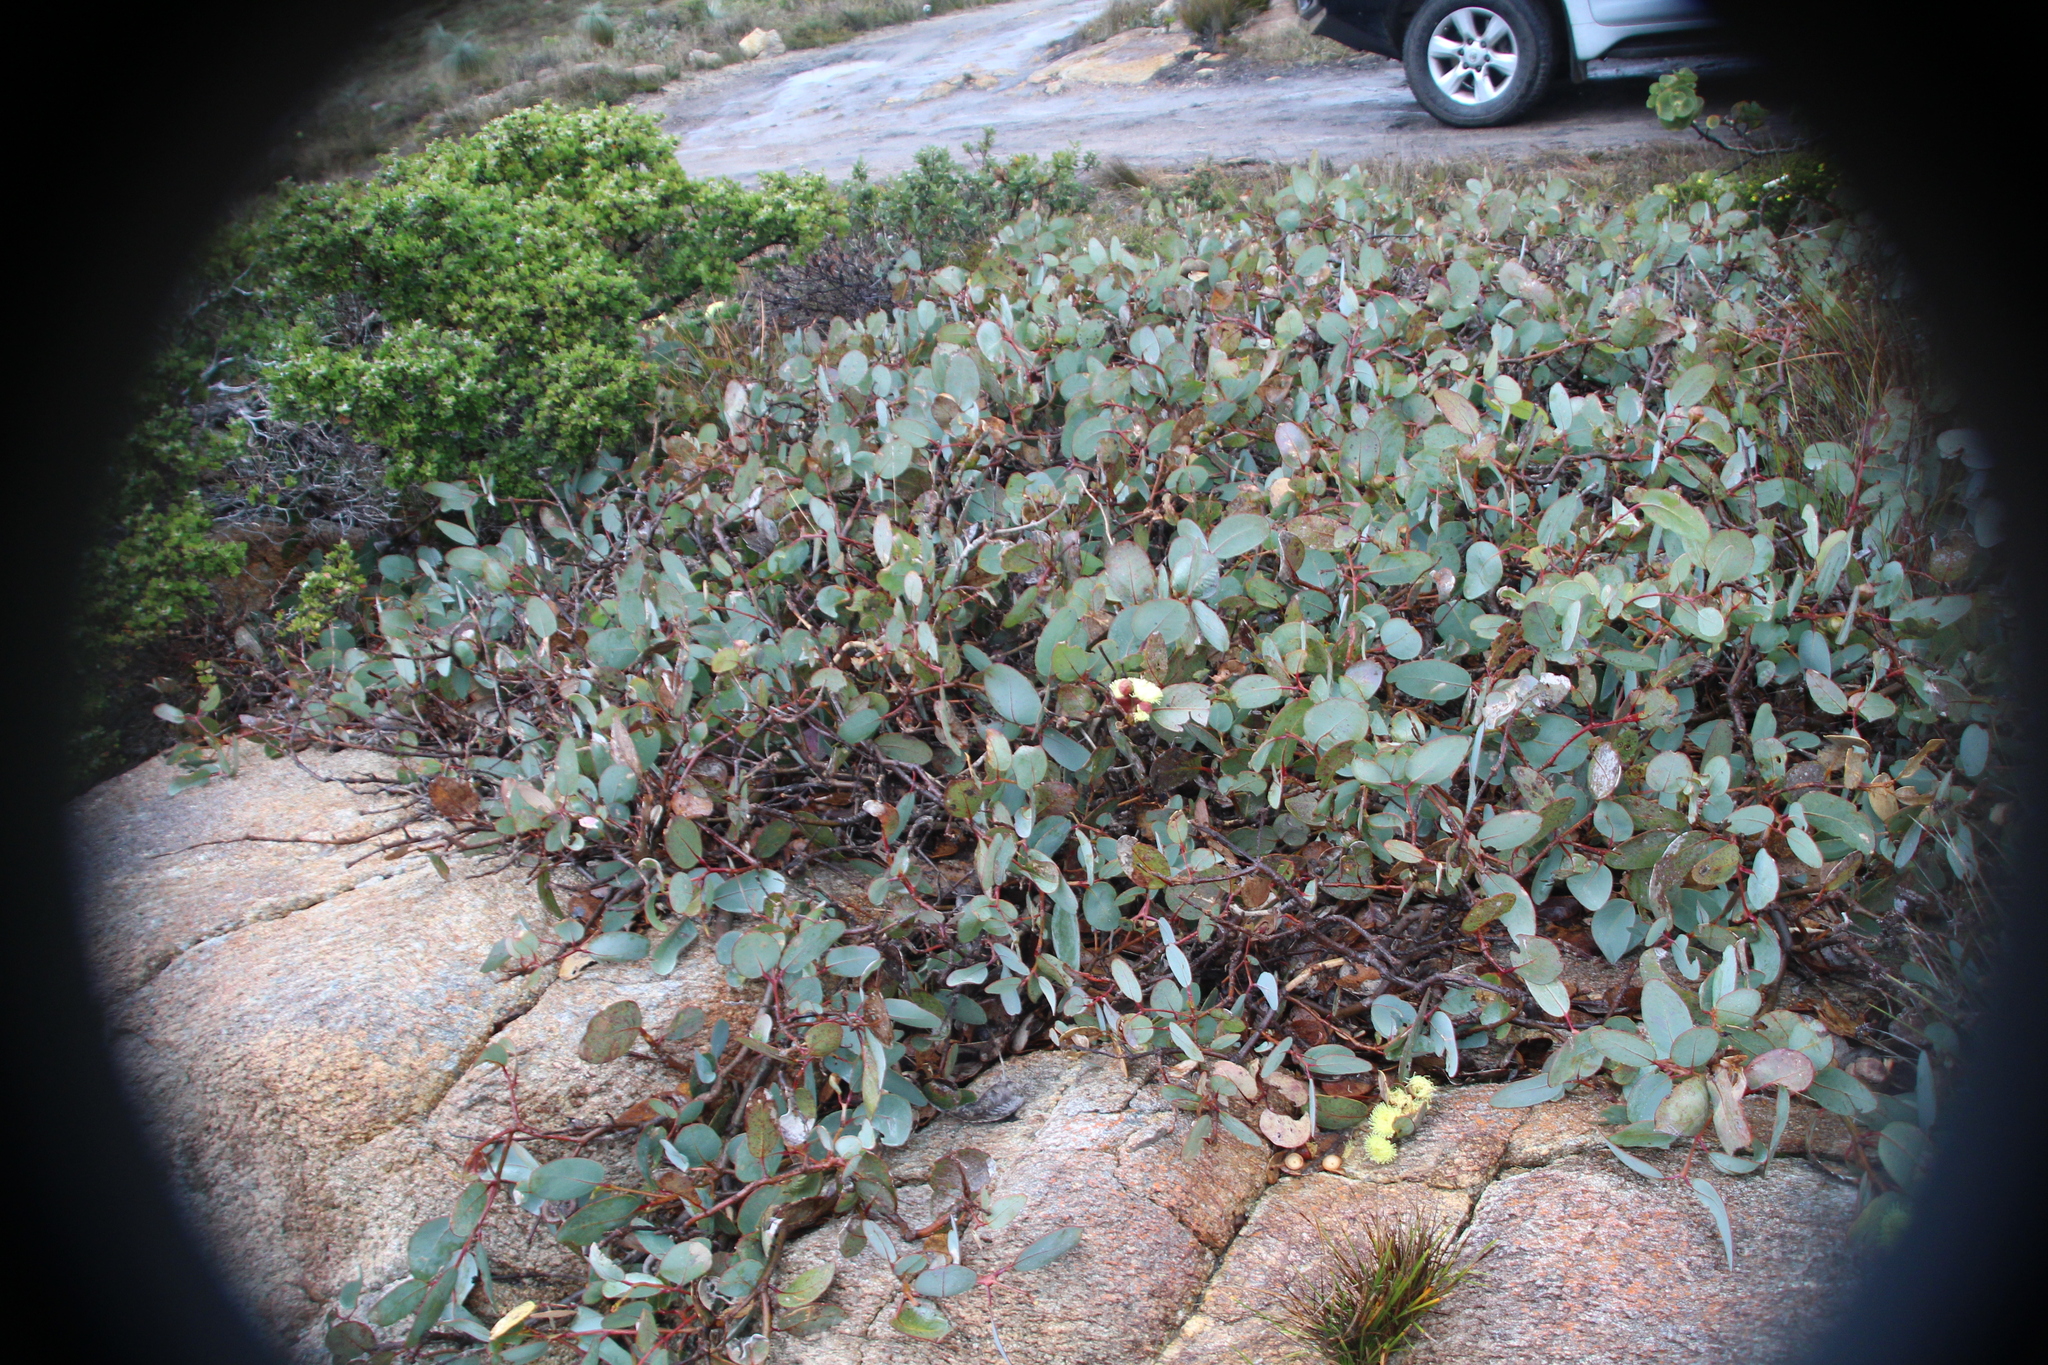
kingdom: Plantae
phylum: Tracheophyta
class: Magnoliopsida
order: Myrtales
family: Myrtaceae
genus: Eucalyptus
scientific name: Eucalyptus preissiana
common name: Stirling range mallee
